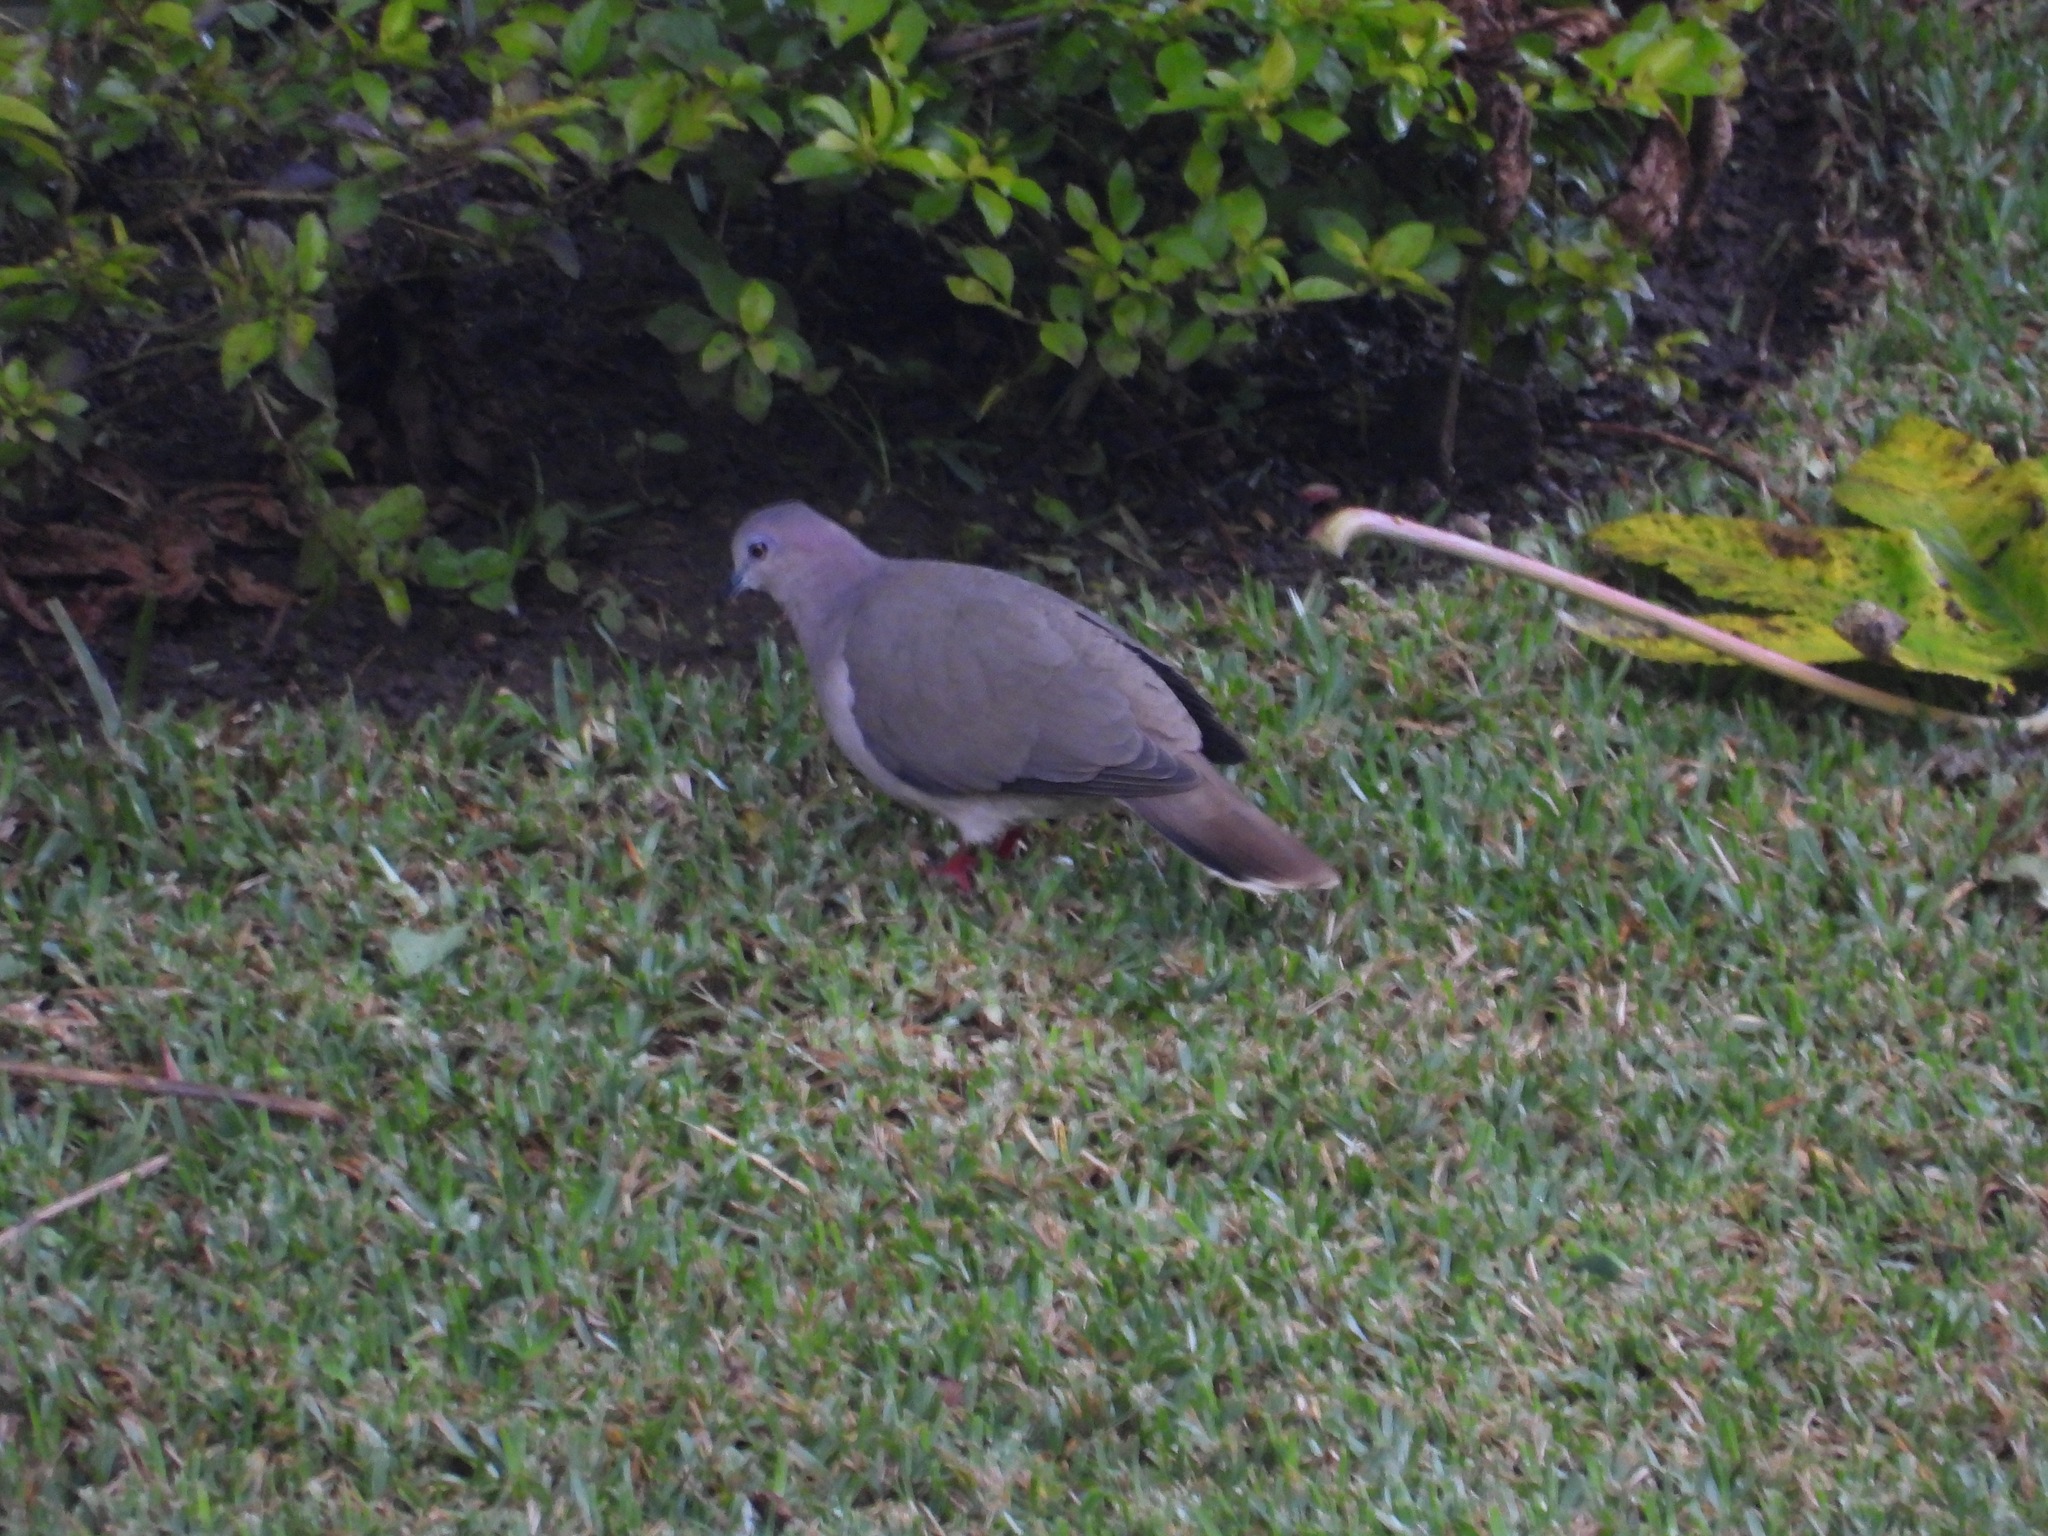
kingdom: Animalia
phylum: Chordata
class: Aves
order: Columbiformes
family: Columbidae
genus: Leptotila
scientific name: Leptotila verreauxi
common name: White-tipped dove
